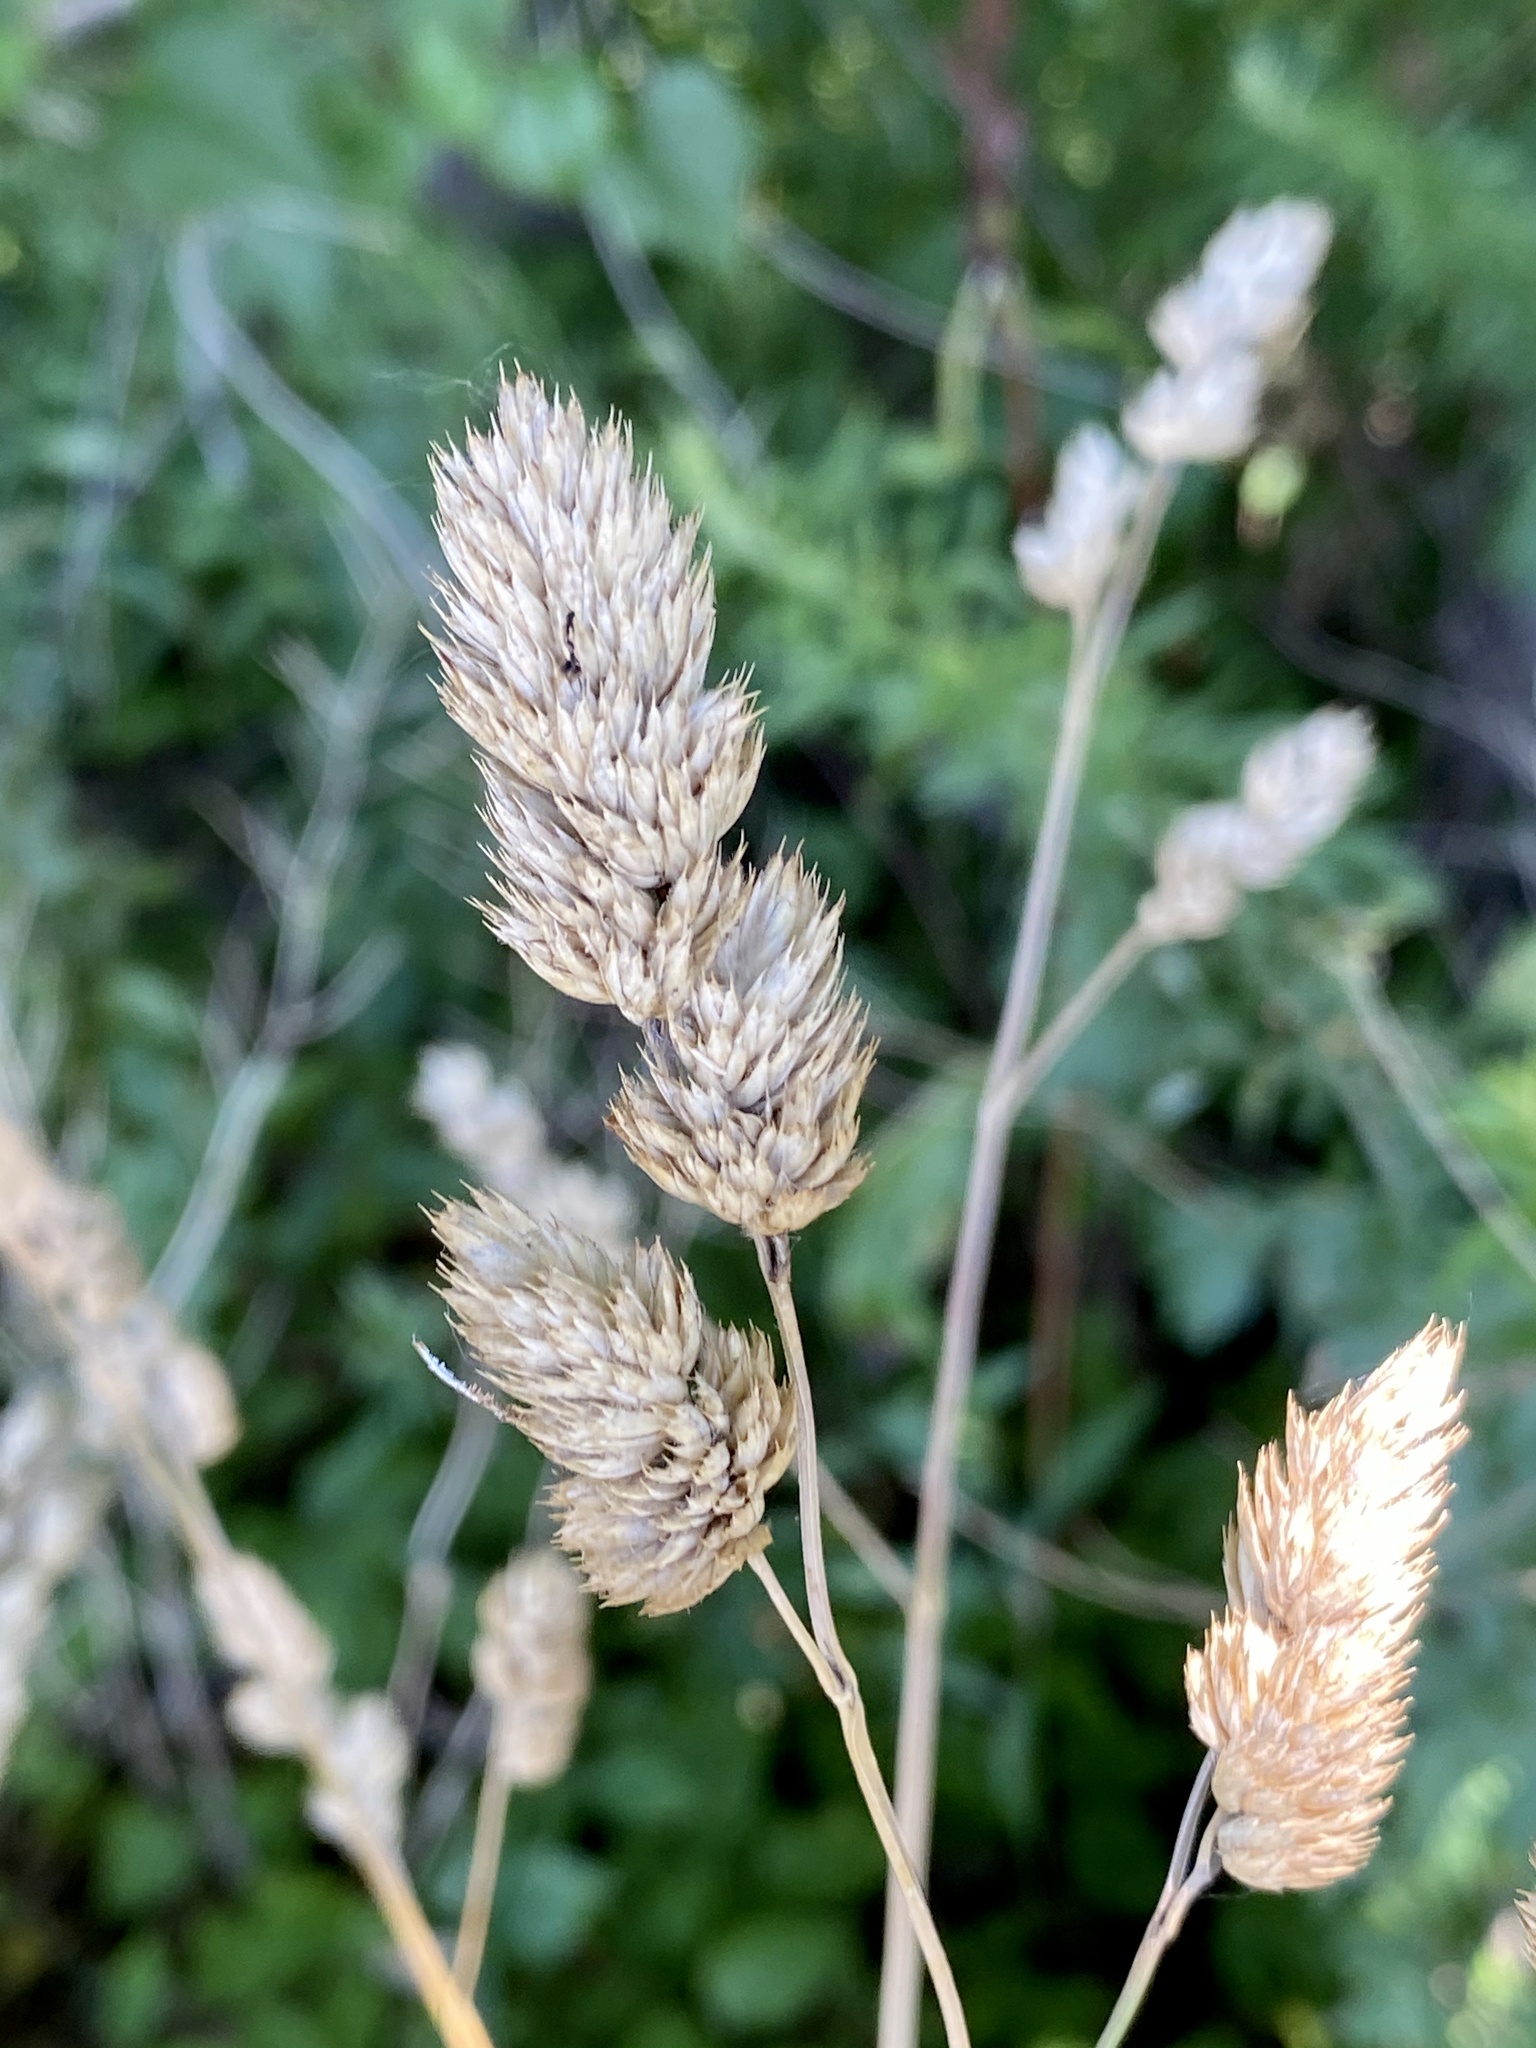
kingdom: Plantae
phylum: Tracheophyta
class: Liliopsida
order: Poales
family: Poaceae
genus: Dactylis
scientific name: Dactylis glomerata
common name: Orchardgrass
